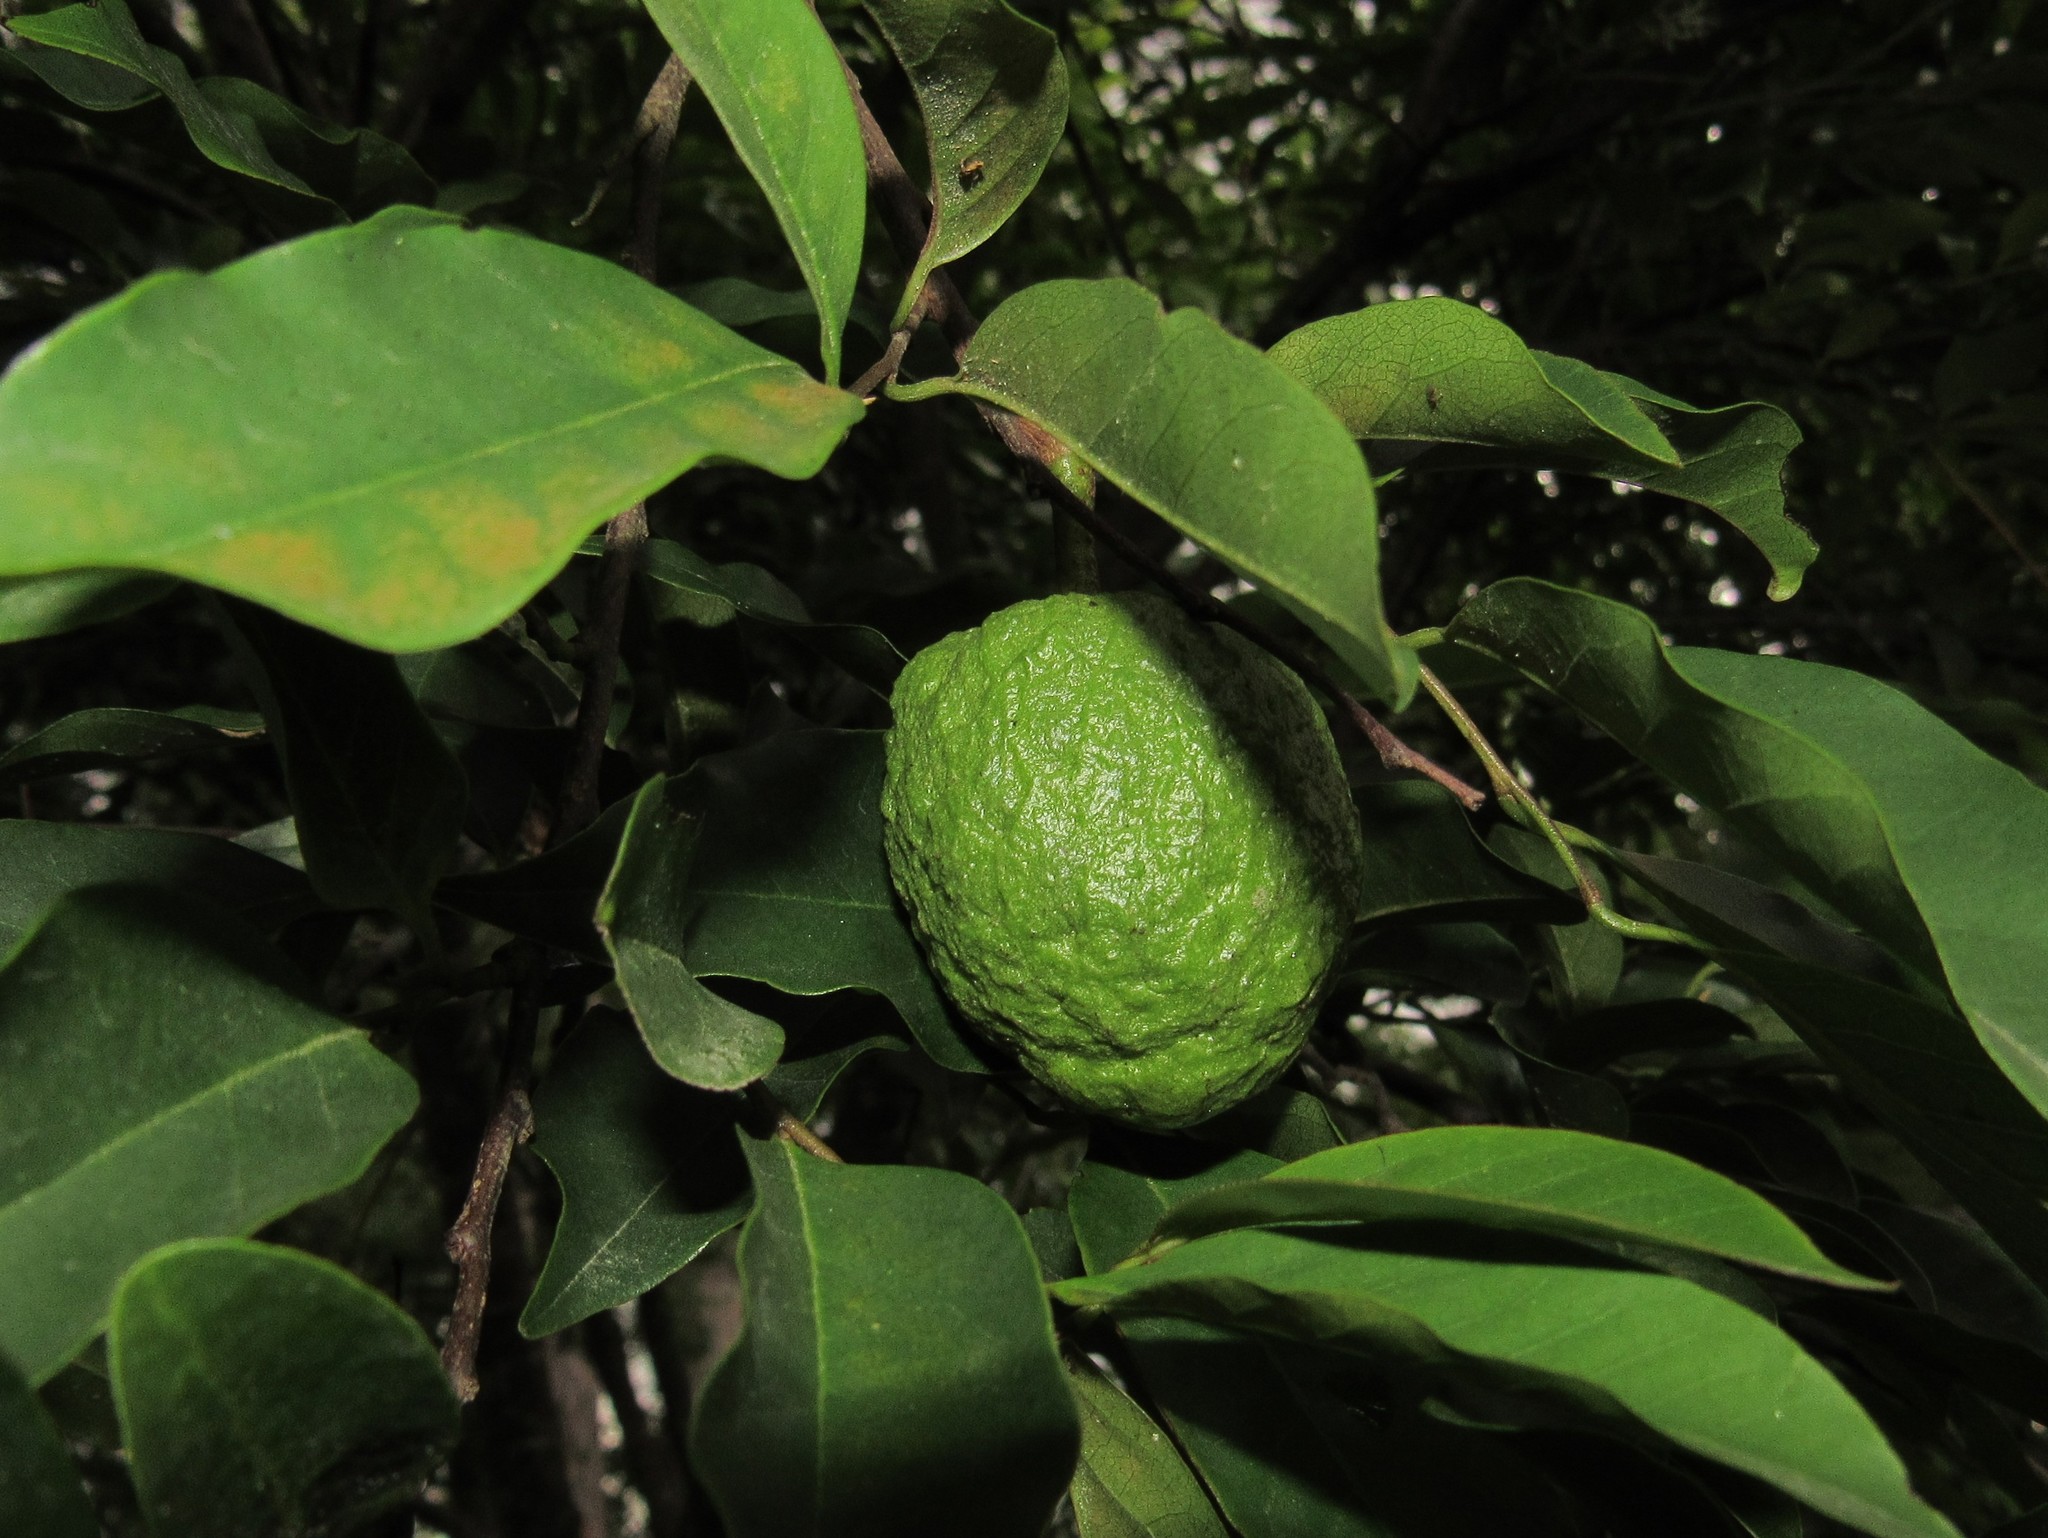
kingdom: Plantae
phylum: Tracheophyta
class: Magnoliopsida
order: Magnoliales
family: Annonaceae
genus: Annona
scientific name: Annona rugulosa
